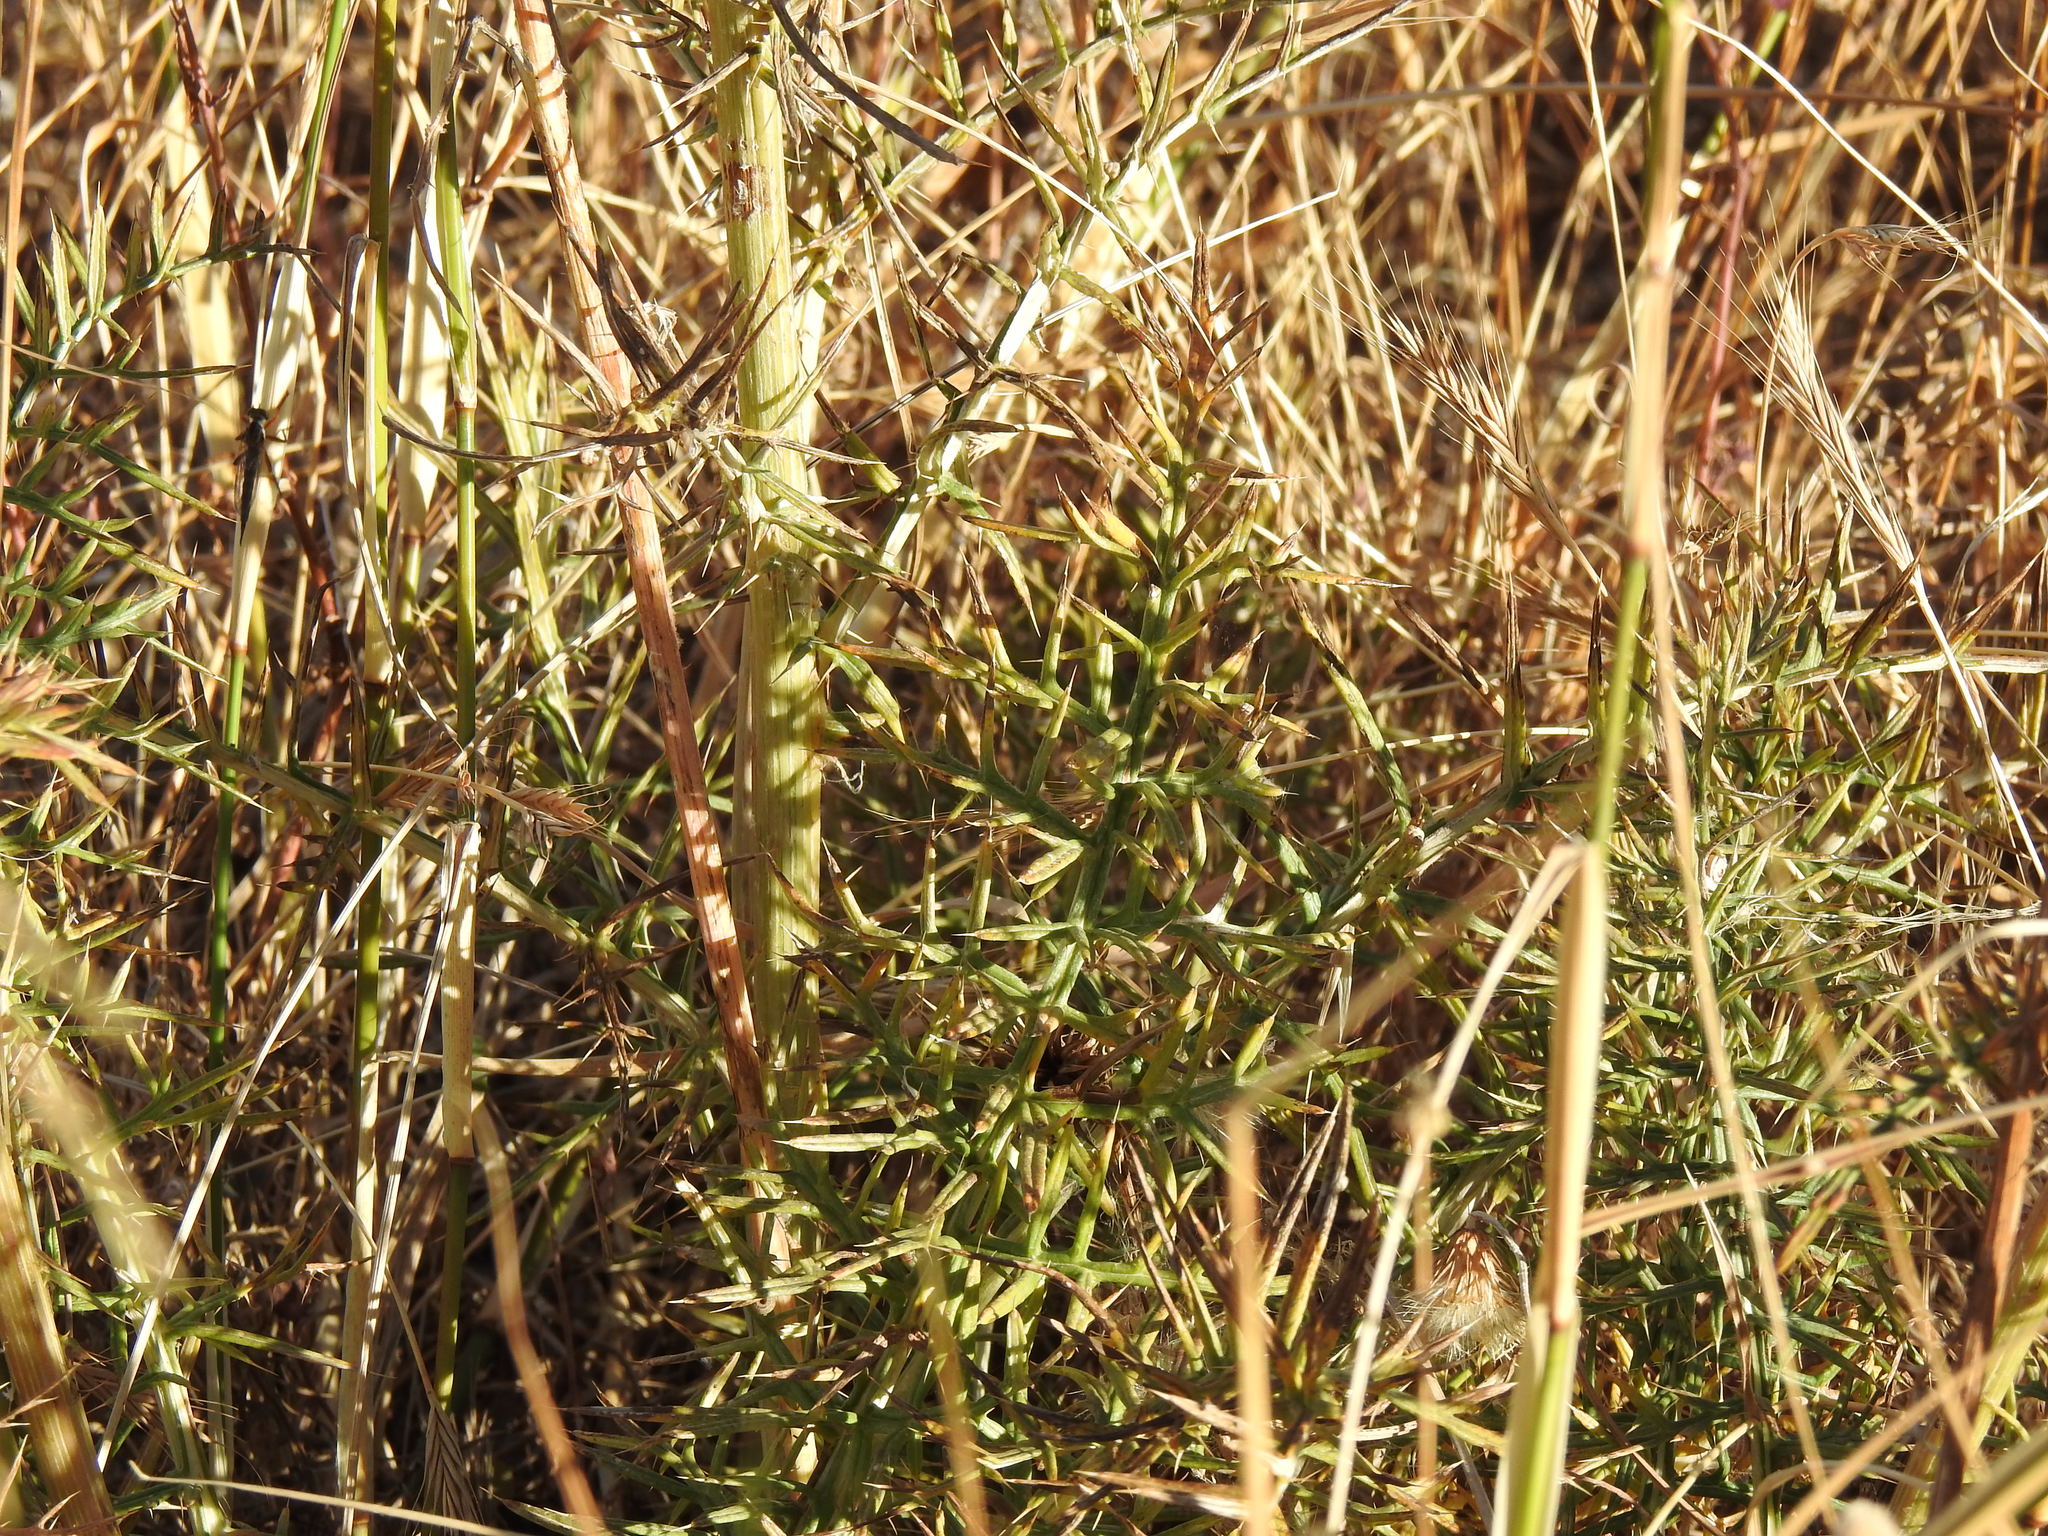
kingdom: Plantae
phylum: Tracheophyta
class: Magnoliopsida
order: Asterales
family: Asteraceae
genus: Cynara
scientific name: Cynara humilis
